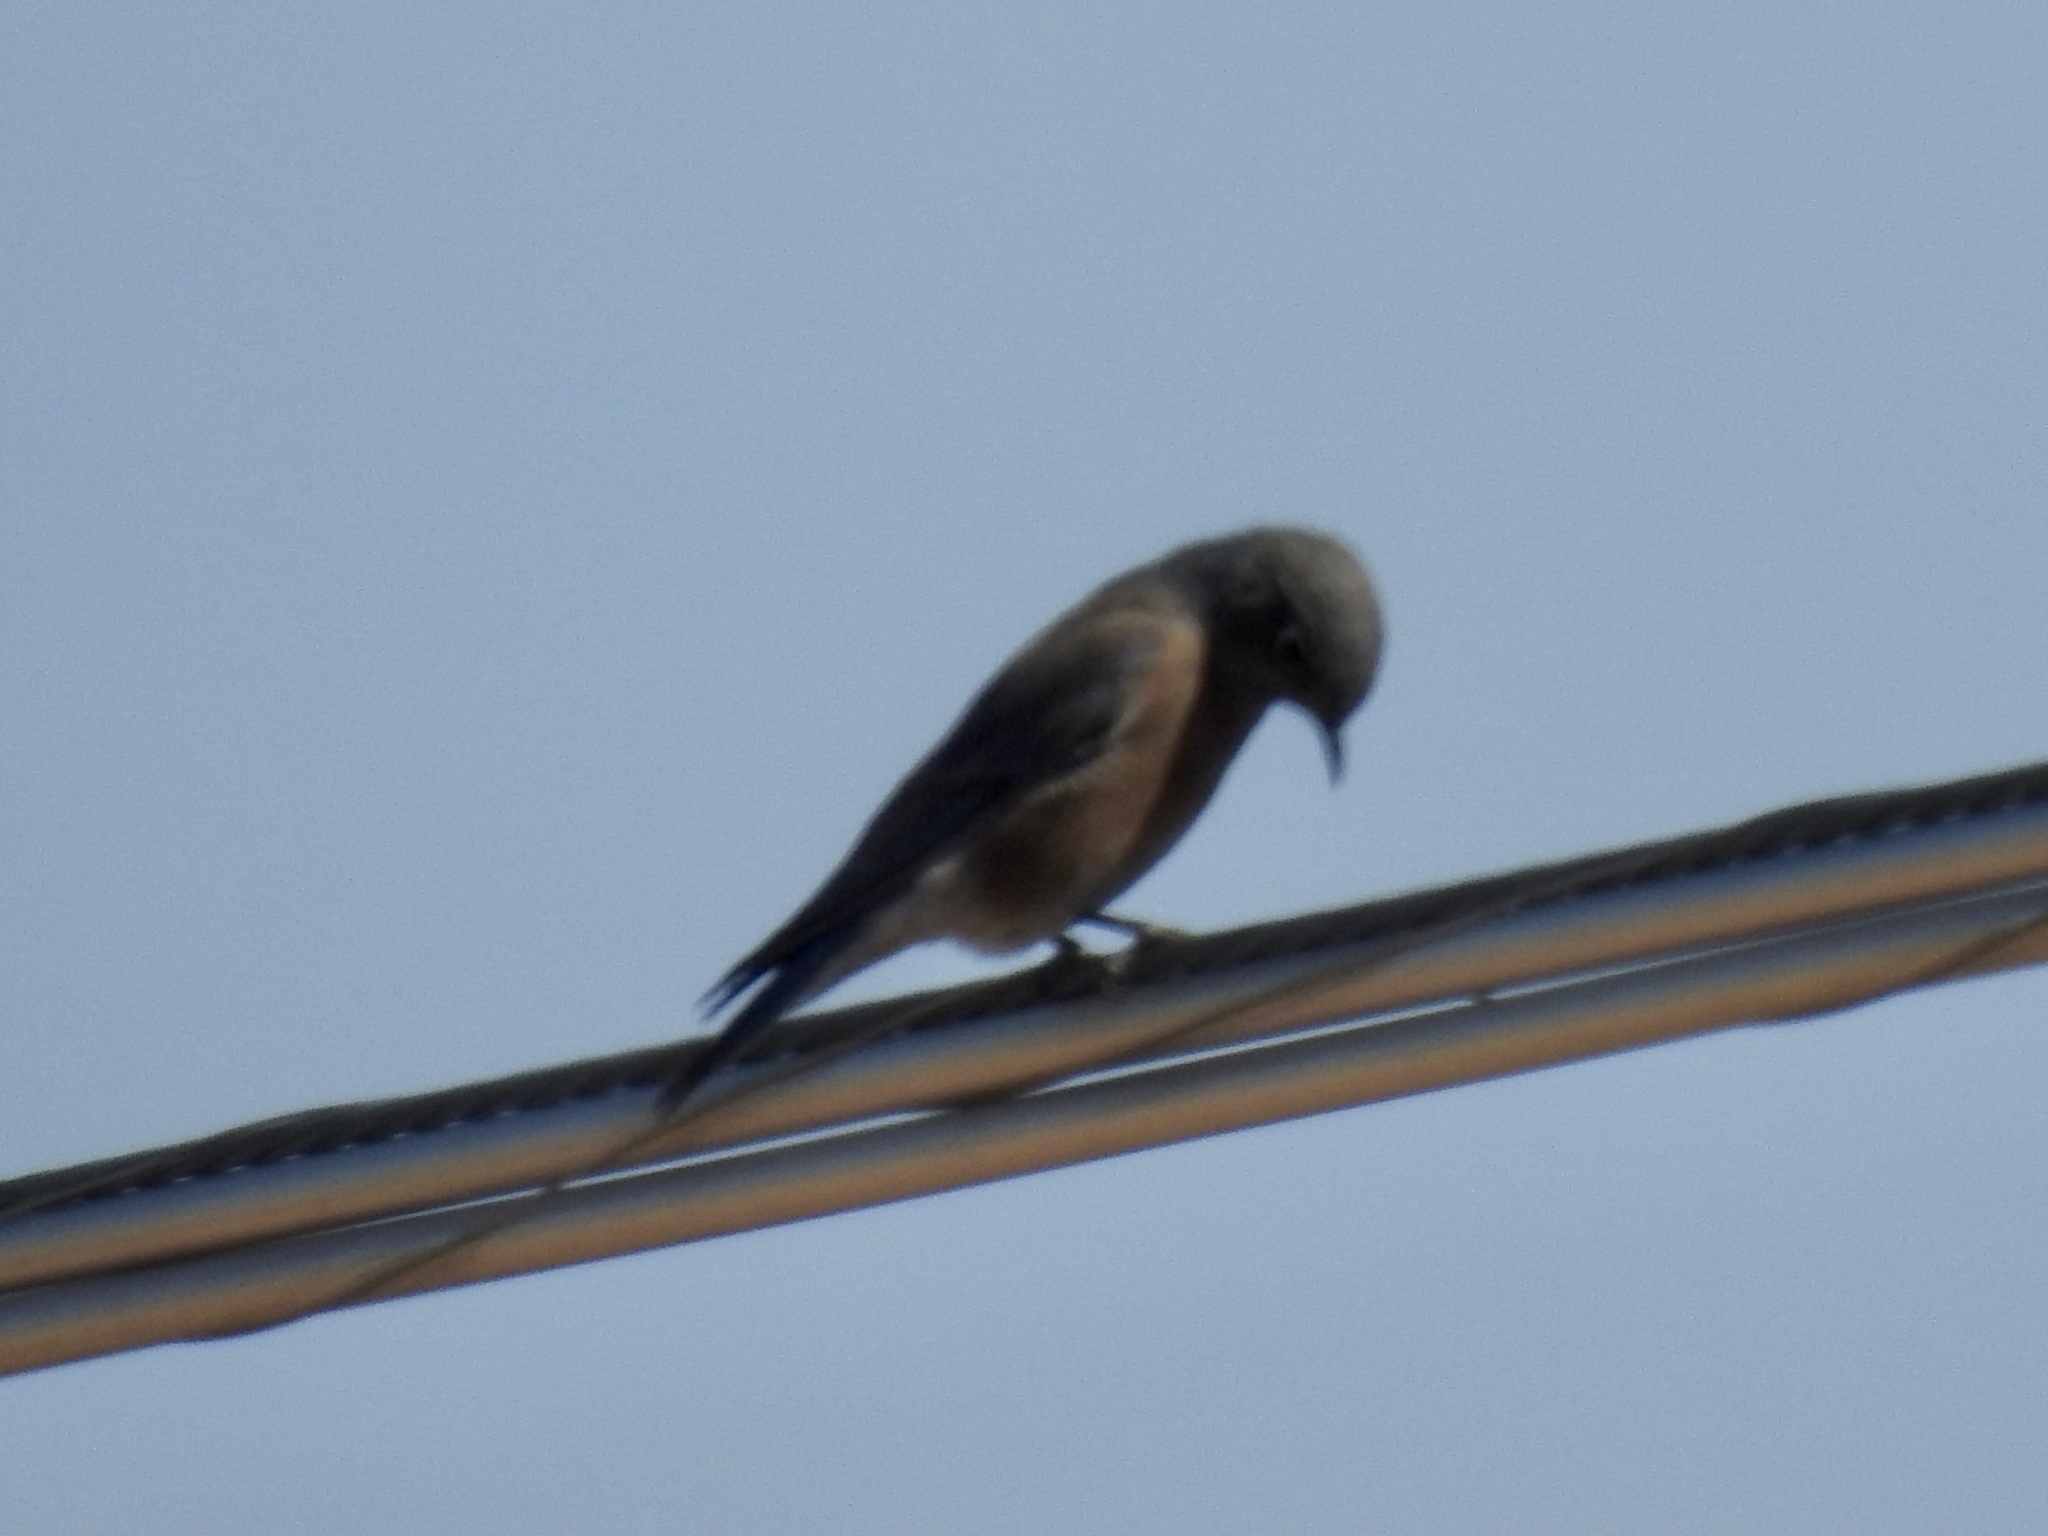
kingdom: Animalia
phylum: Chordata
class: Aves
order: Passeriformes
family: Turdidae
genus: Sialia
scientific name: Sialia mexicana
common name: Western bluebird
